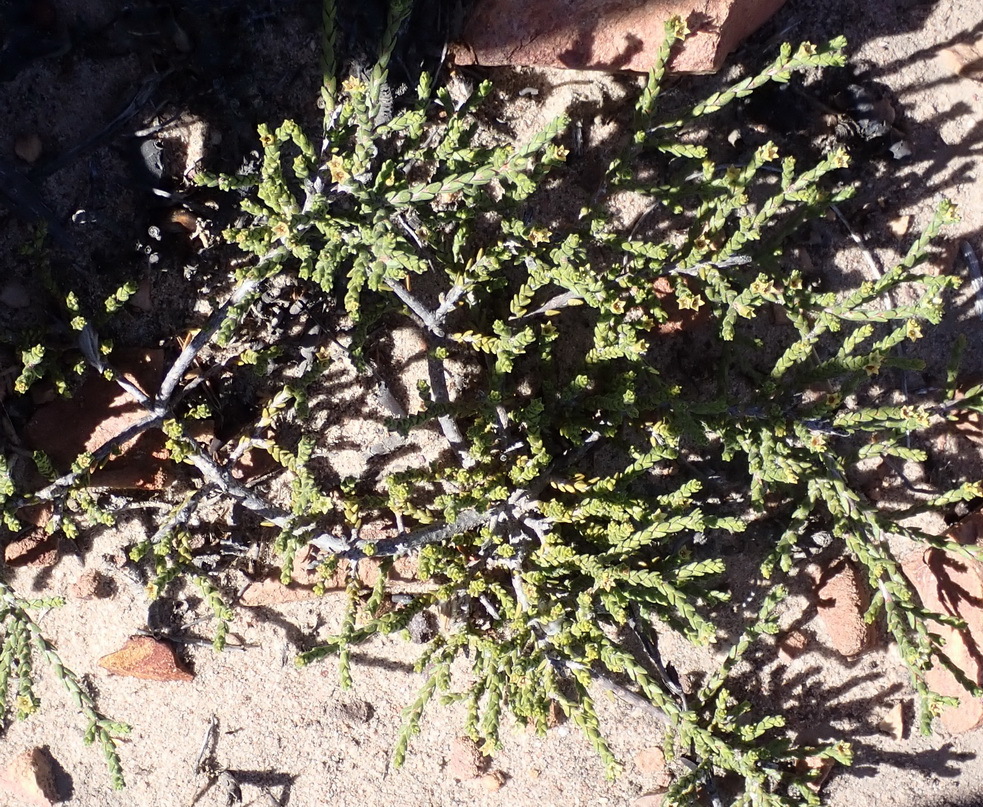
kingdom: Plantae
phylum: Tracheophyta
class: Magnoliopsida
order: Sapindales
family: Rutaceae
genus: Diosma
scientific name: Diosma apetala
